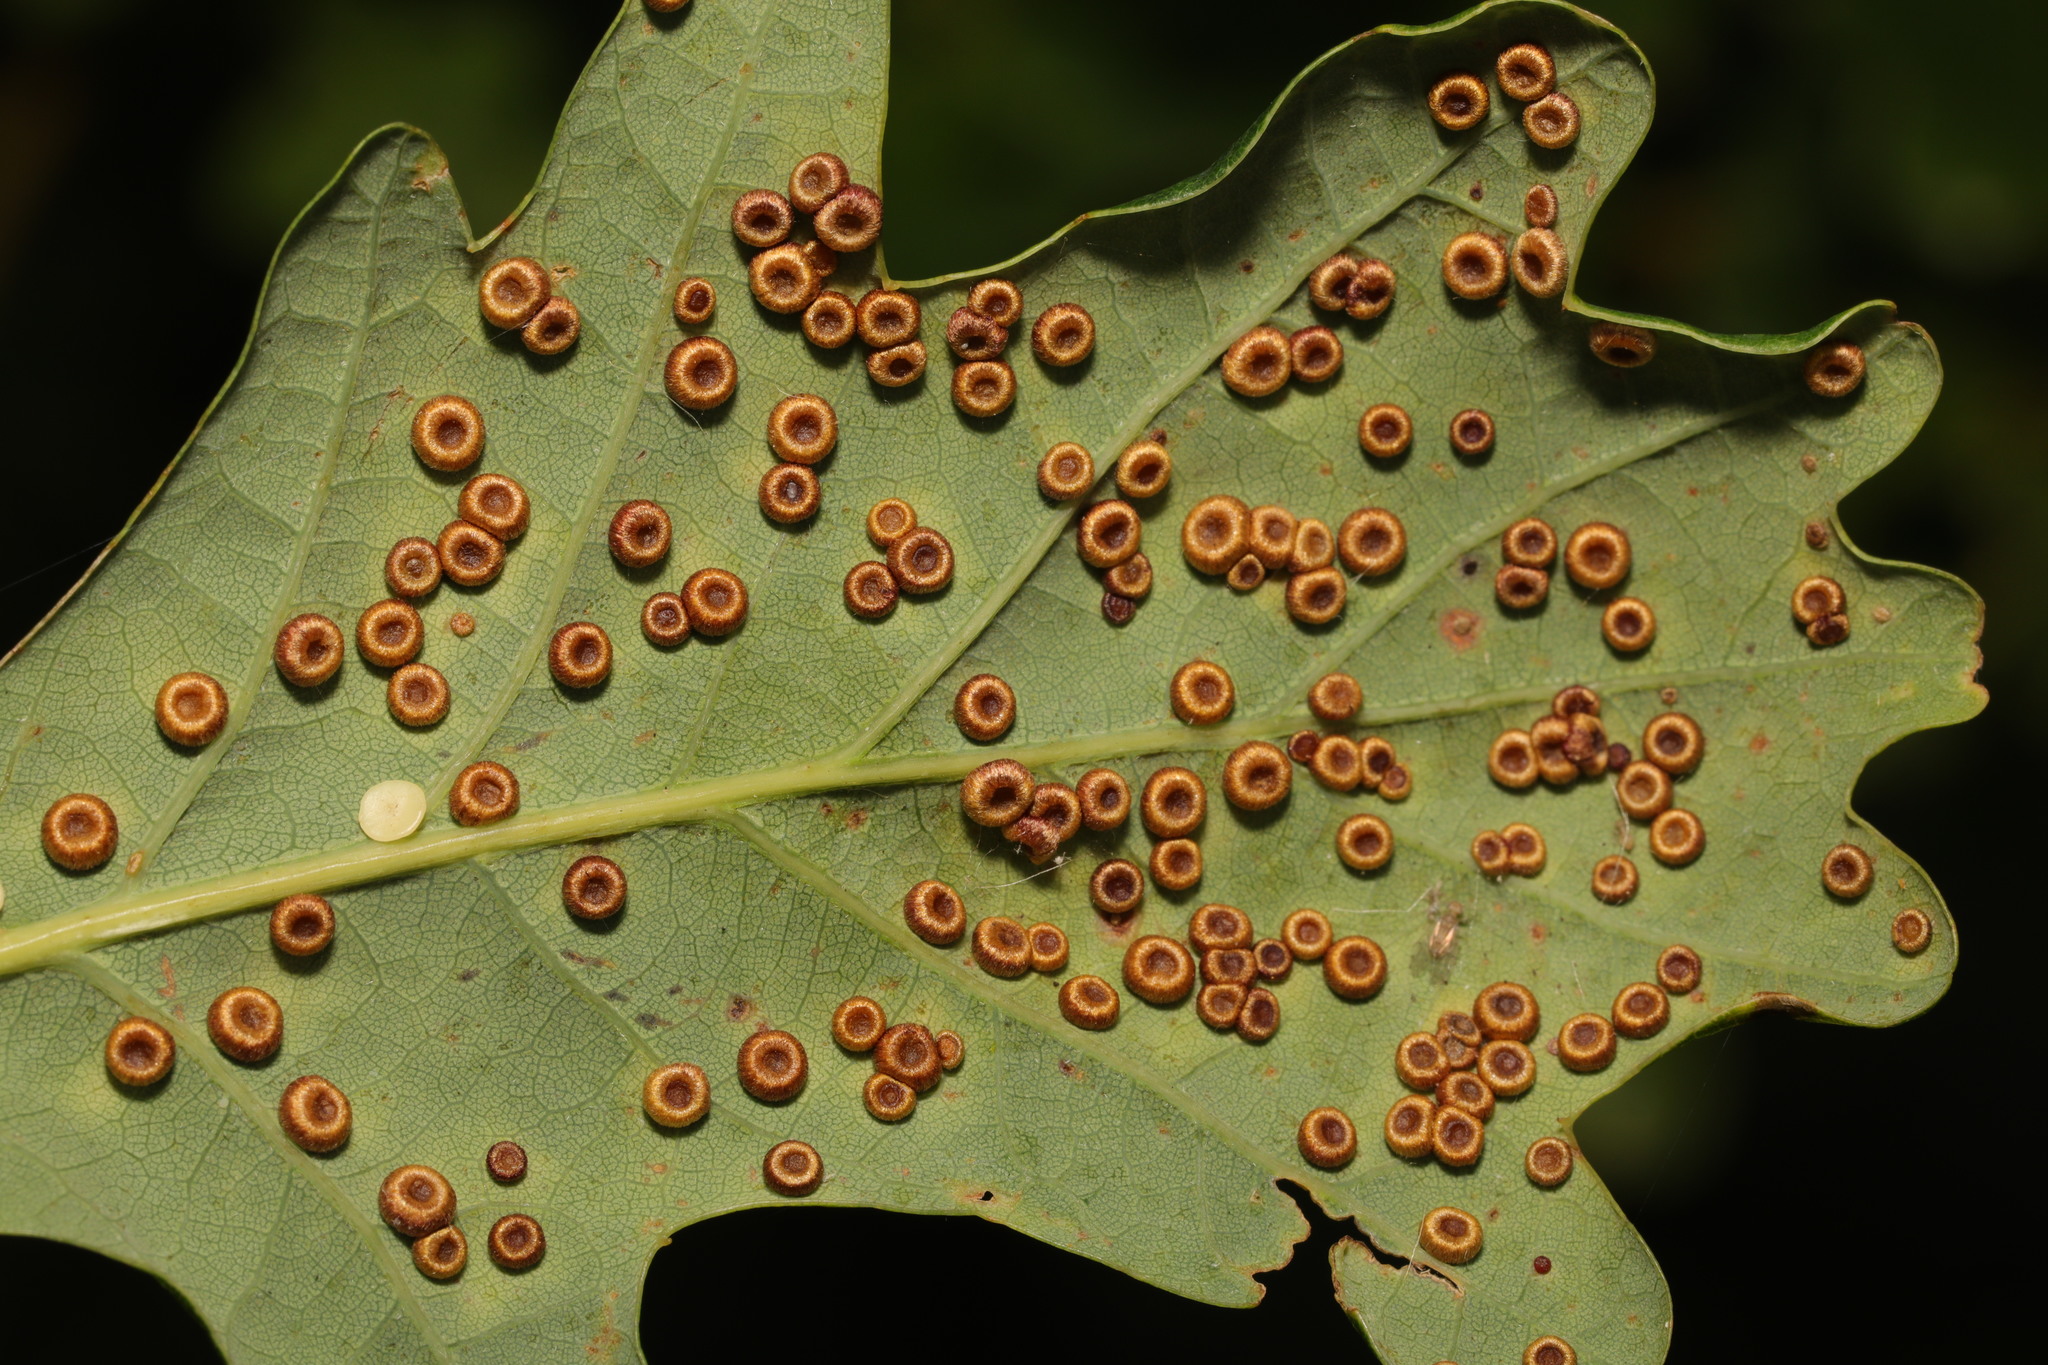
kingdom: Animalia
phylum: Arthropoda
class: Insecta
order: Hymenoptera
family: Cynipidae
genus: Neuroterus
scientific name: Neuroterus numismalis
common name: Silk-button spangle gall
